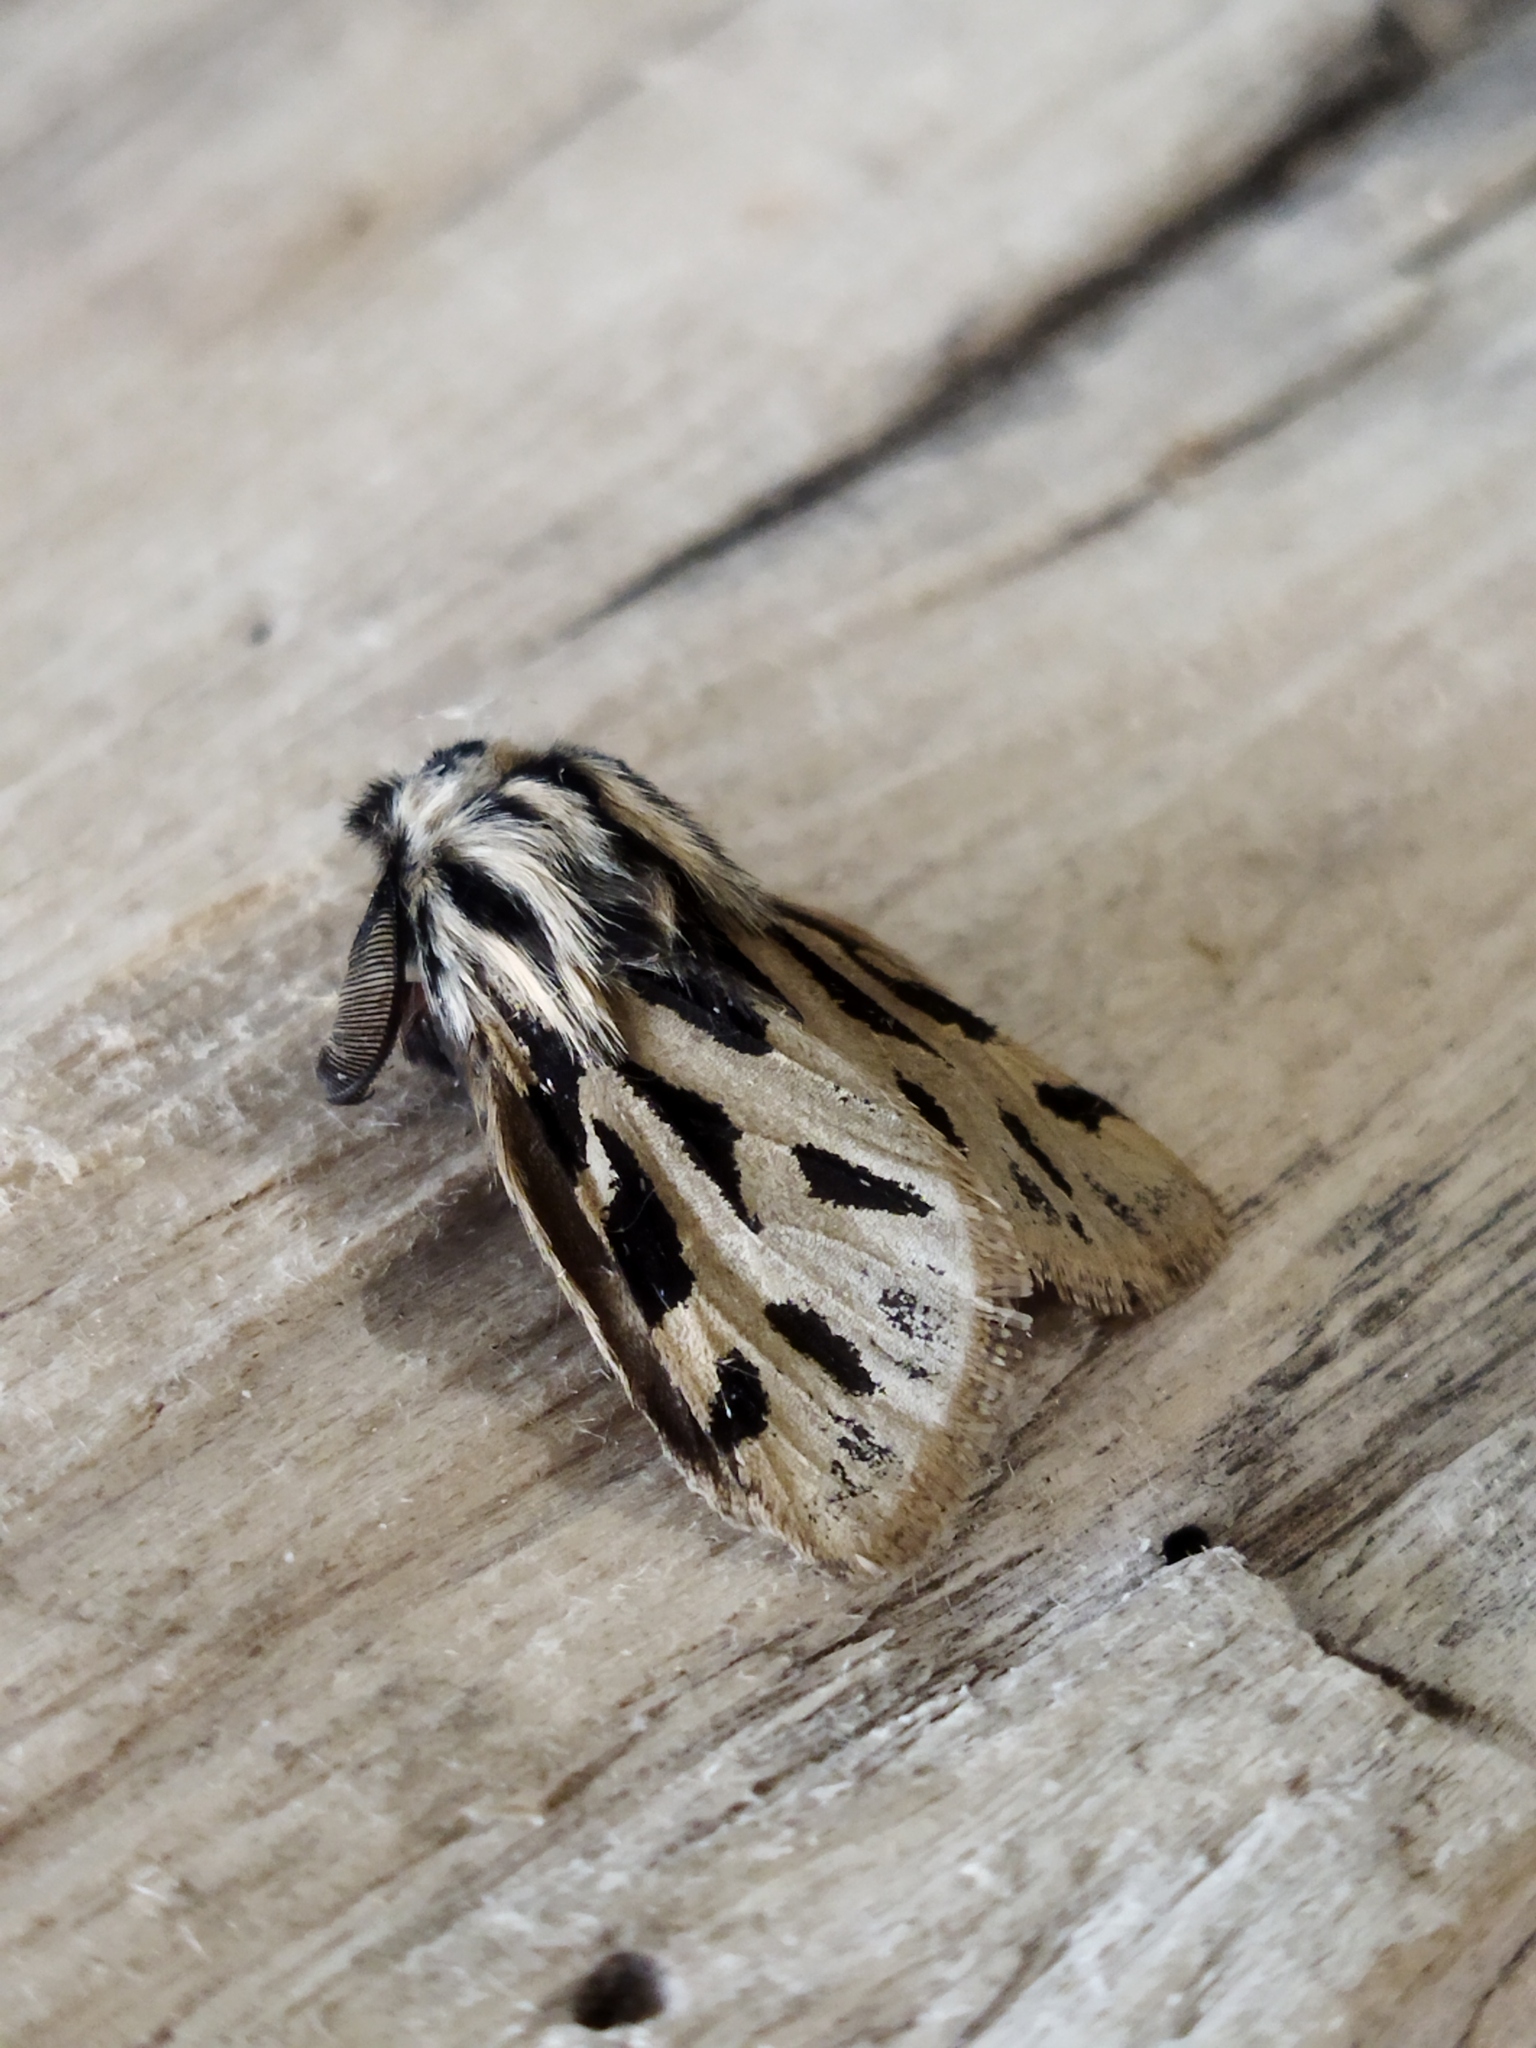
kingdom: Animalia
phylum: Arthropoda
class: Insecta
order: Lepidoptera
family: Erebidae
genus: Ocnogyna
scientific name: Ocnogyna parasita
